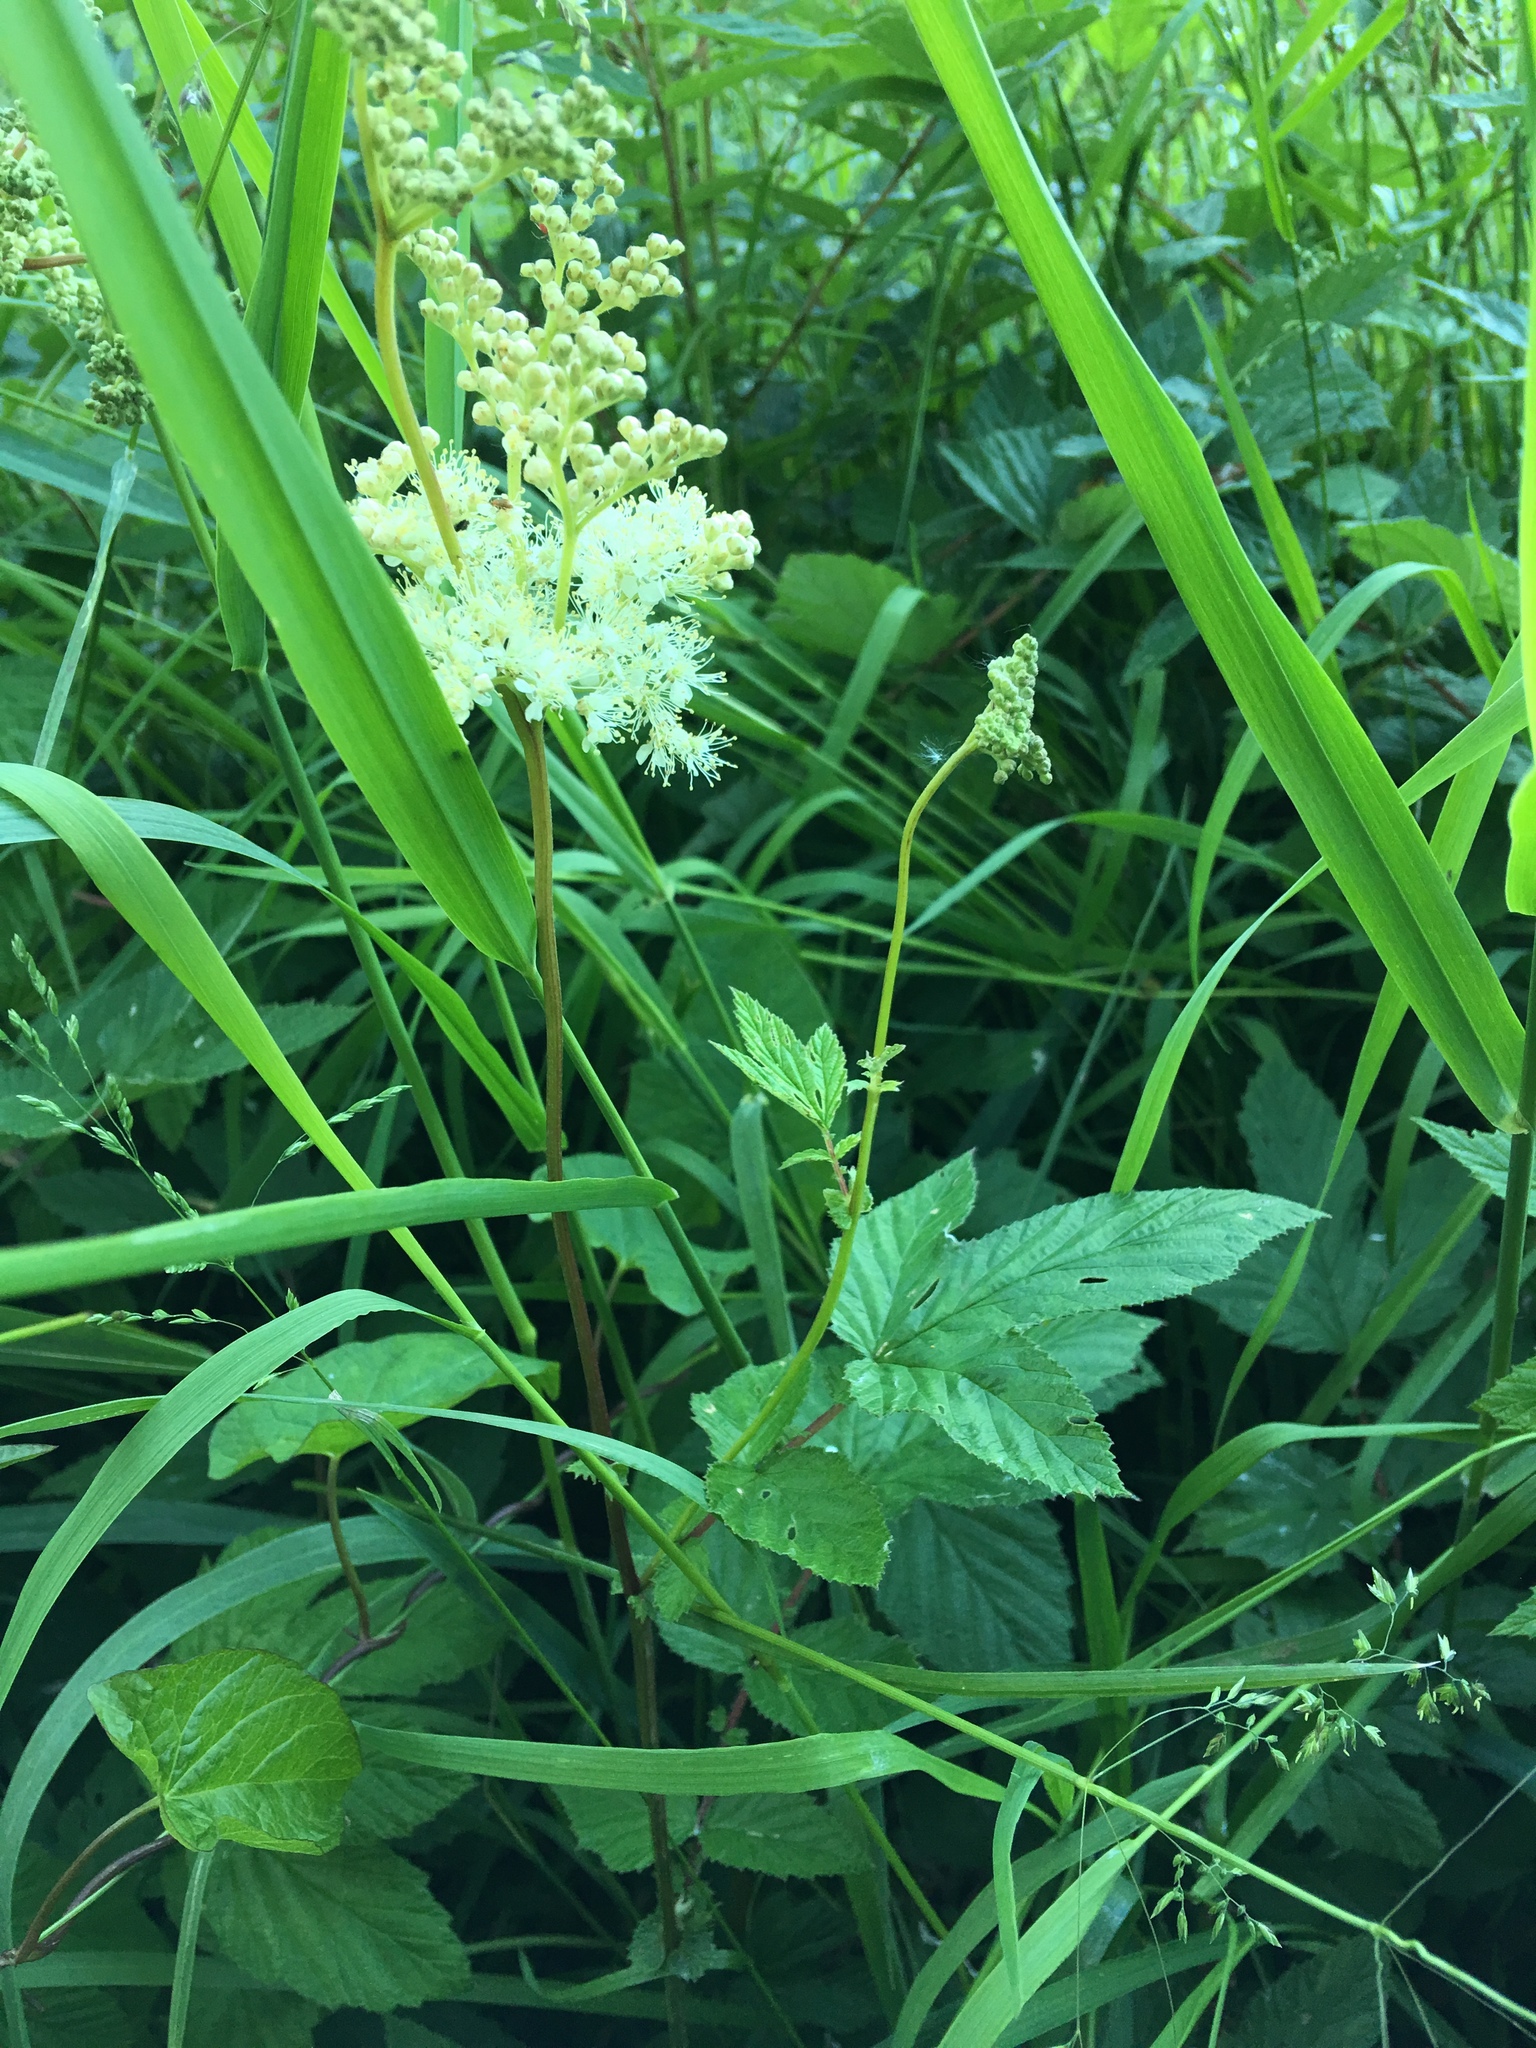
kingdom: Plantae
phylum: Tracheophyta
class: Magnoliopsida
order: Rosales
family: Rosaceae
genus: Filipendula
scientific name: Filipendula ulmaria
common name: Meadowsweet
